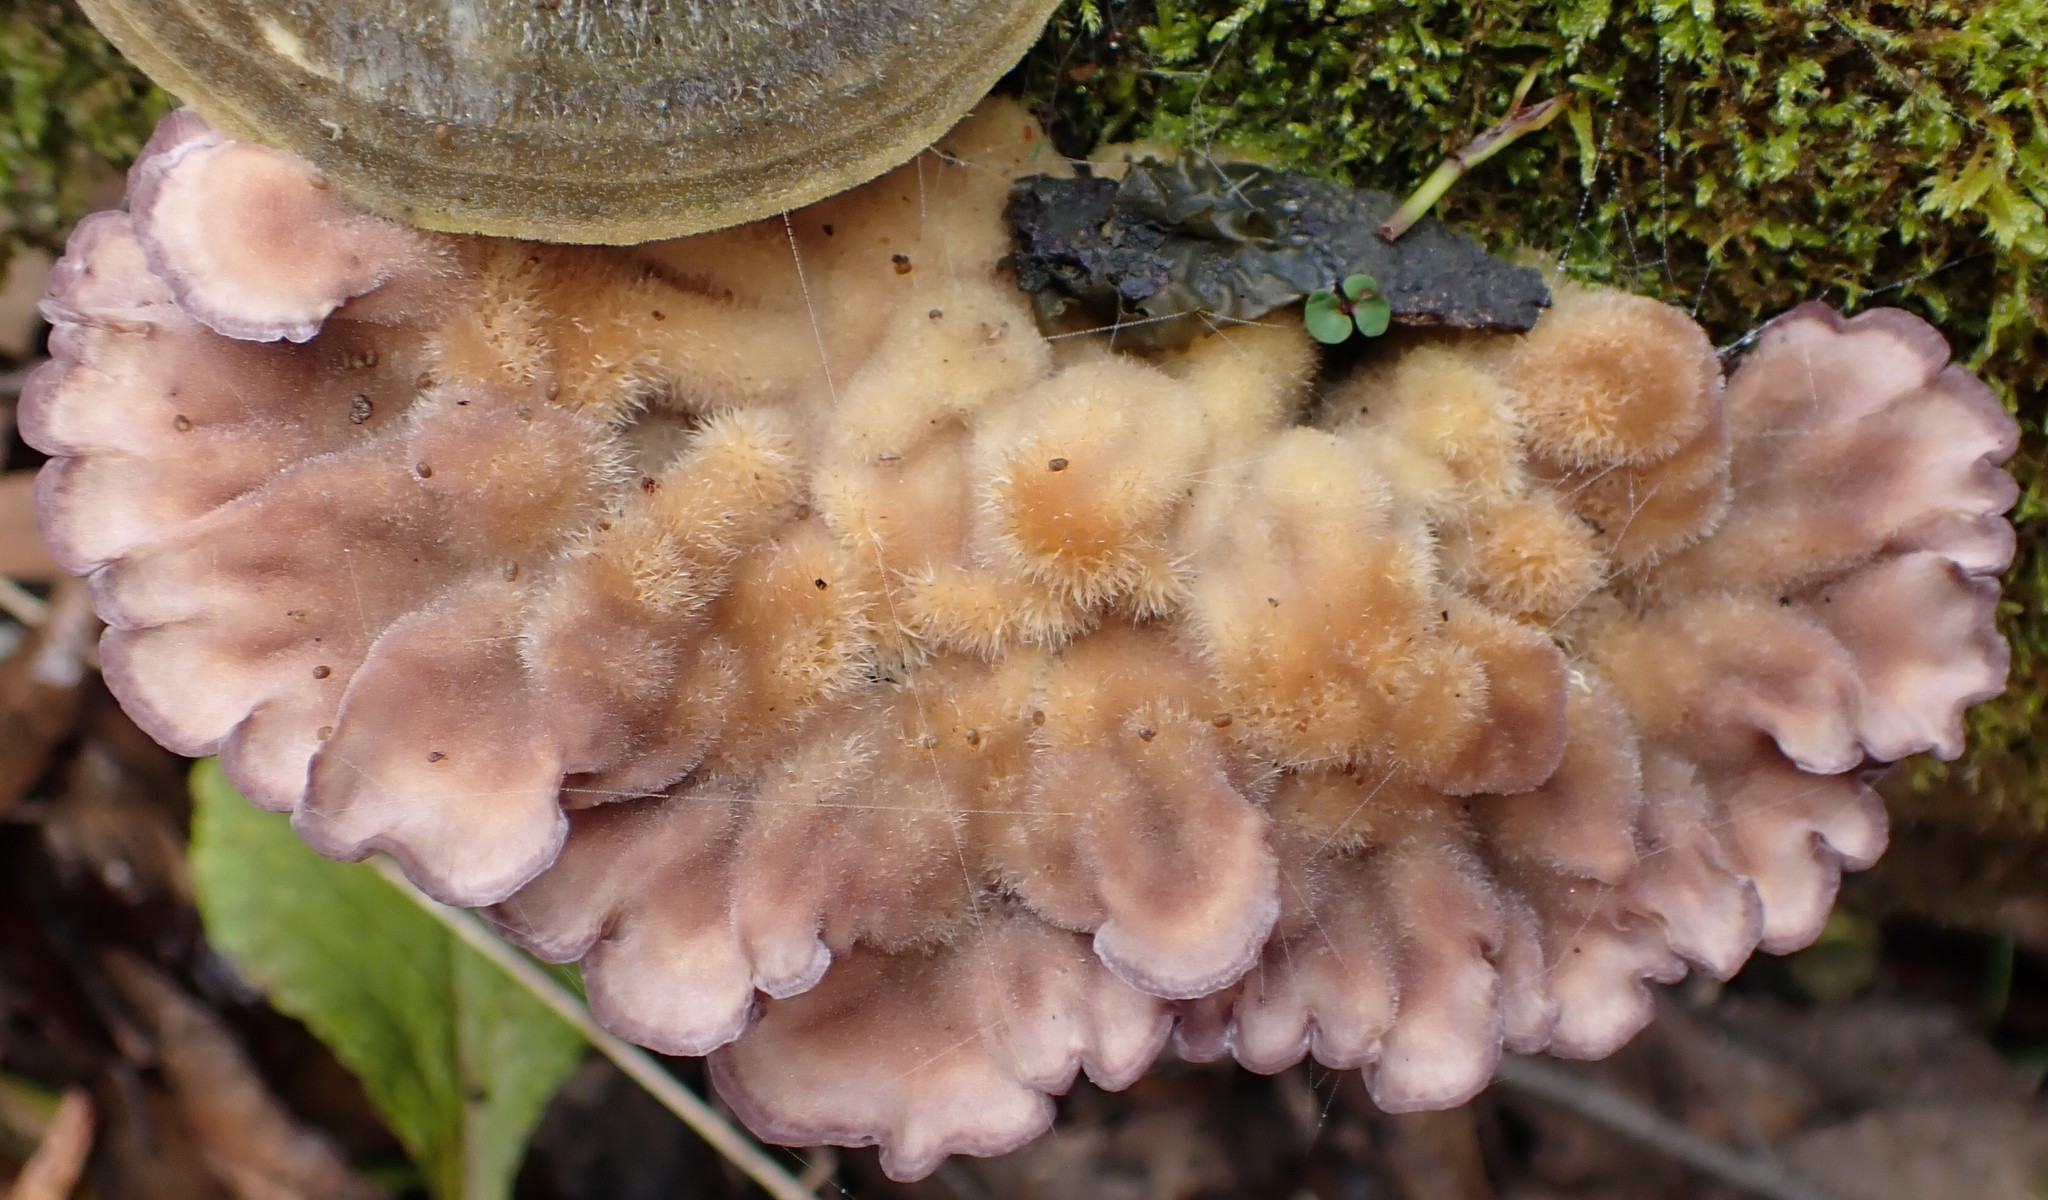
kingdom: Fungi
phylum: Basidiomycota
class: Agaricomycetes
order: Polyporales
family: Panaceae
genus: Cymatoderma
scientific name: Cymatoderma elegans
